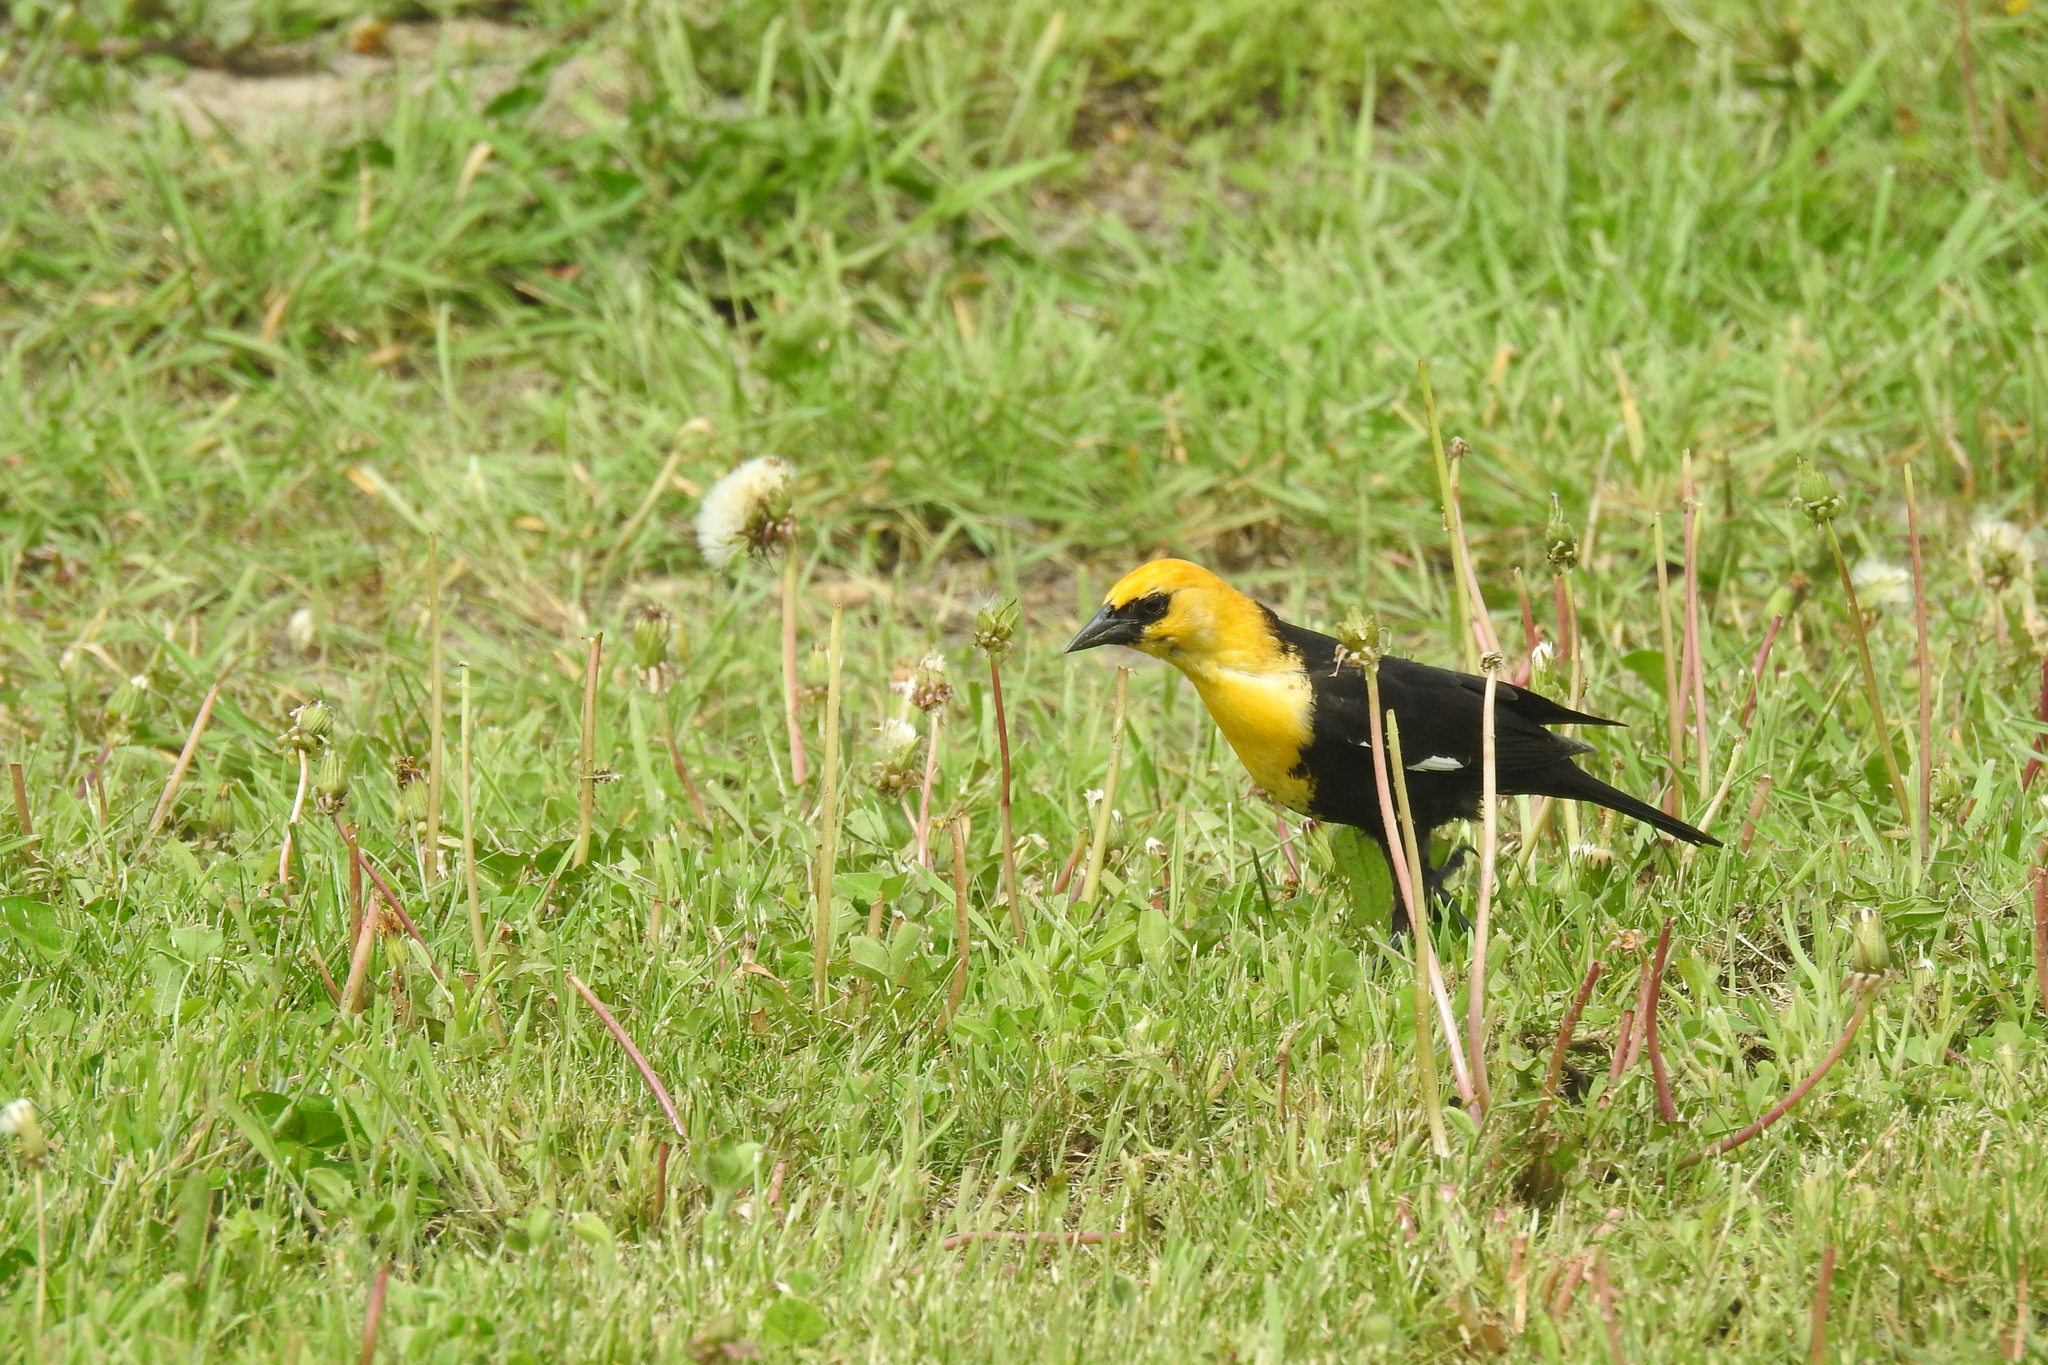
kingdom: Animalia
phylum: Chordata
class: Aves
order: Passeriformes
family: Icteridae
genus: Xanthocephalus
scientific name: Xanthocephalus xanthocephalus
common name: Yellow-headed blackbird
